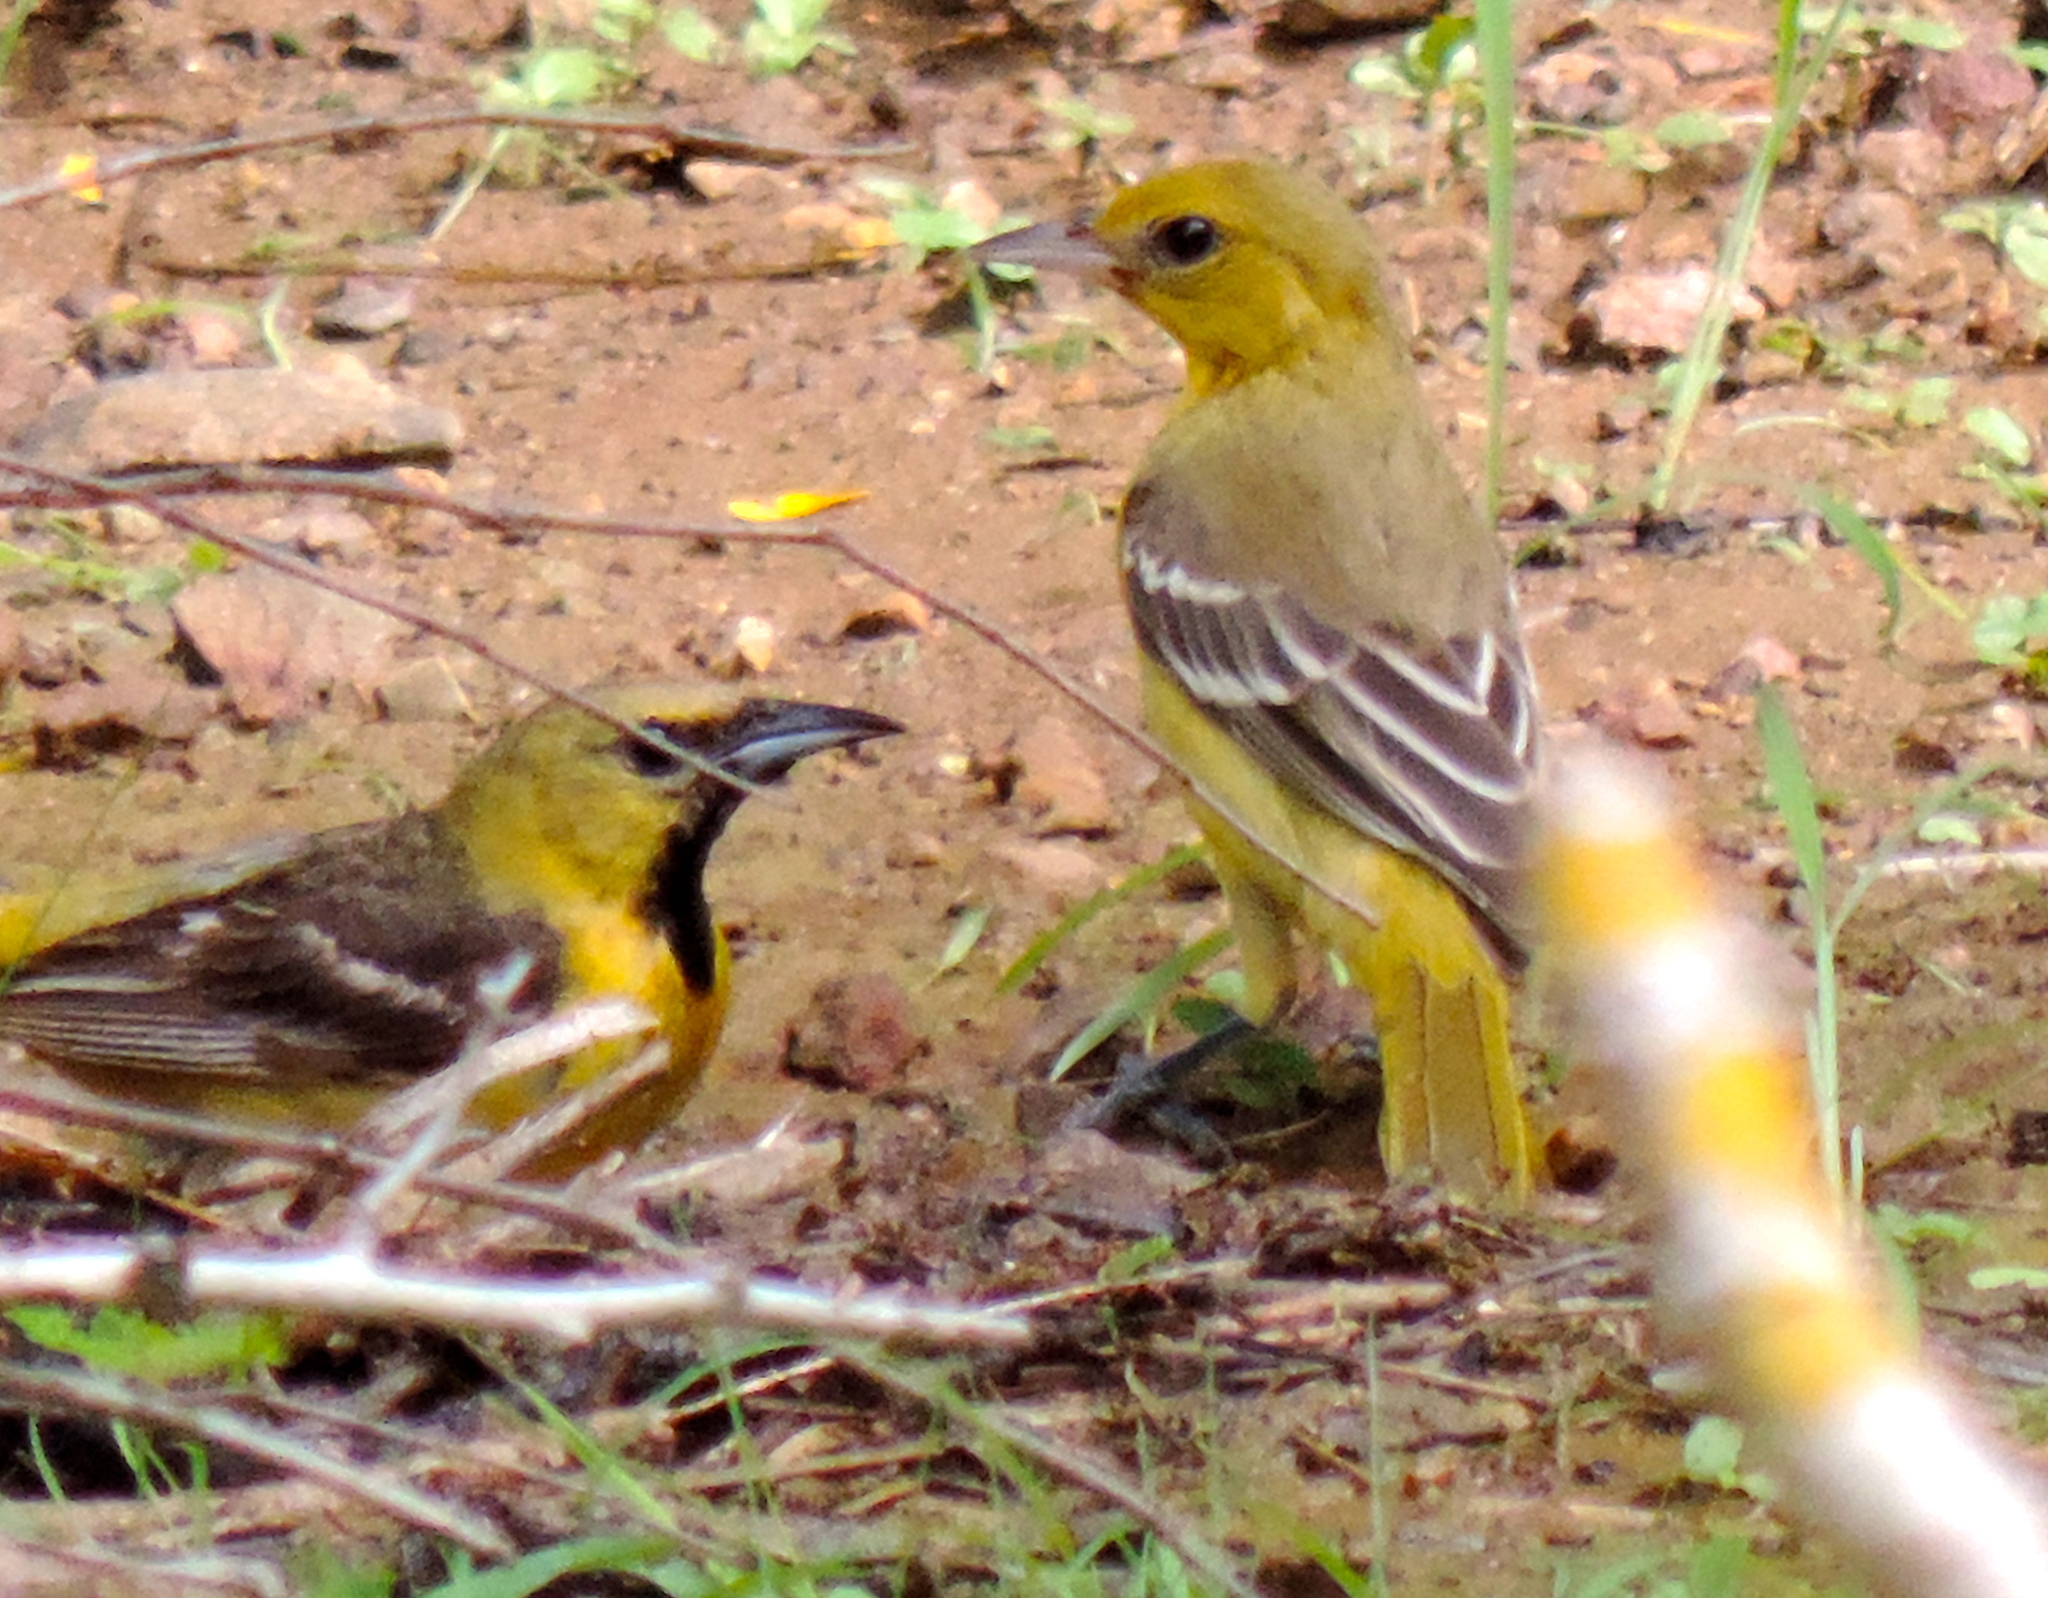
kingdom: Animalia
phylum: Chordata
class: Aves
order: Passeriformes
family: Icteridae
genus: Icterus
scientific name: Icterus spurius
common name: Orchard oriole
